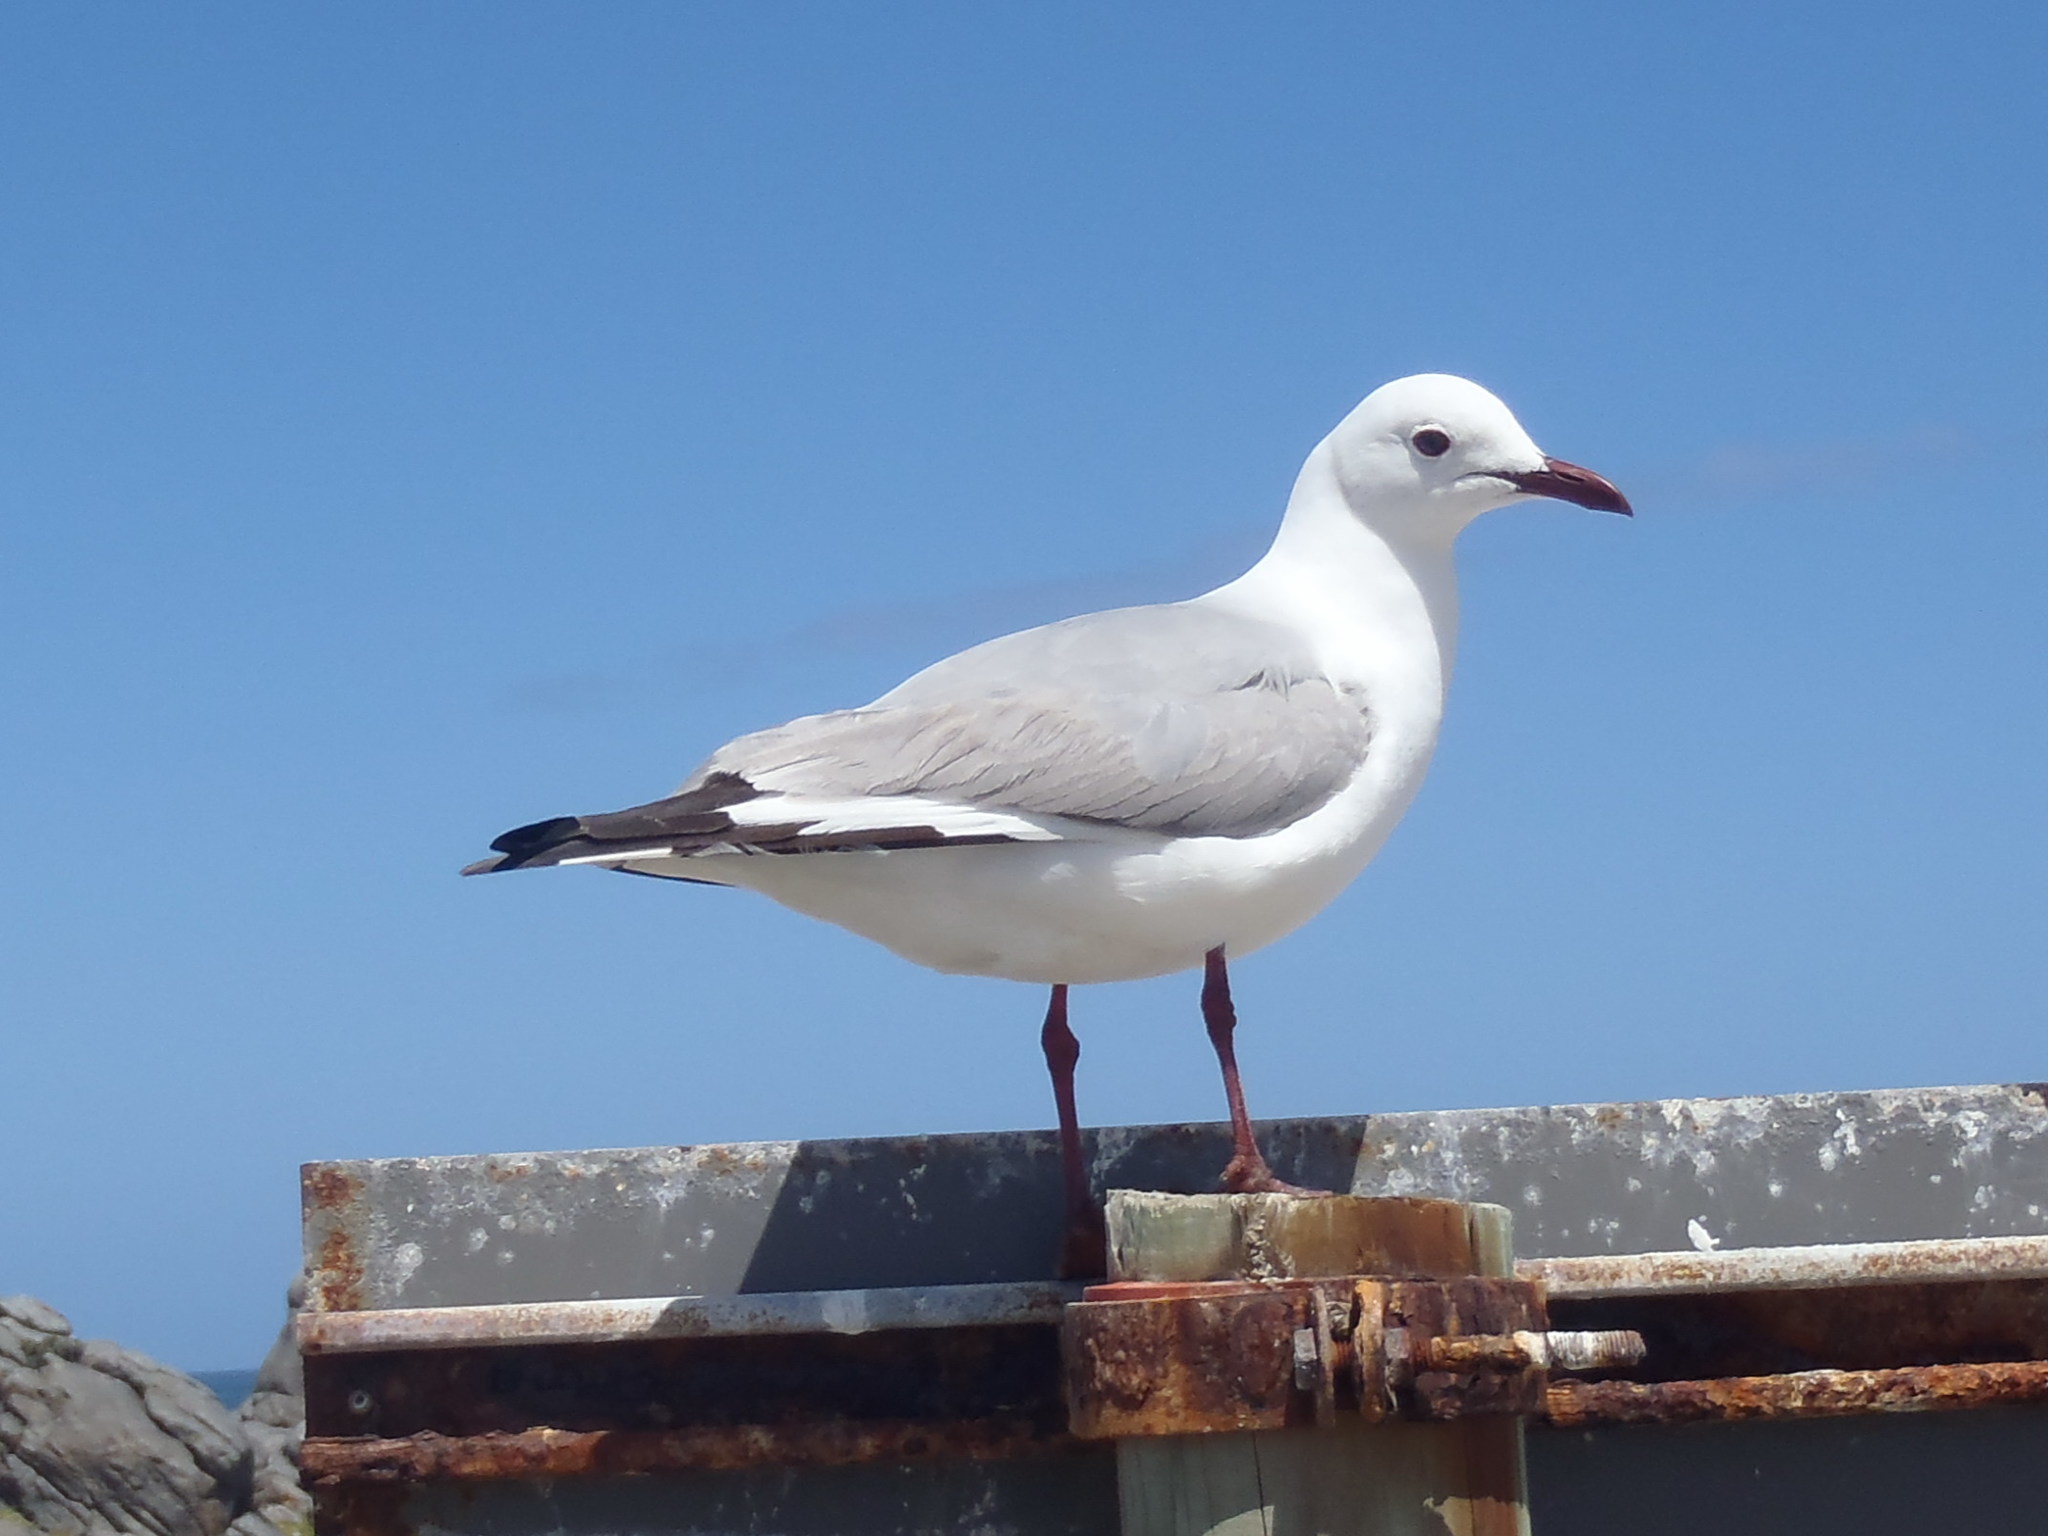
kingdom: Animalia
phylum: Chordata
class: Aves
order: Charadriiformes
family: Laridae
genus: Chroicocephalus
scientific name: Chroicocephalus hartlaubii
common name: Hartlaub's gull
